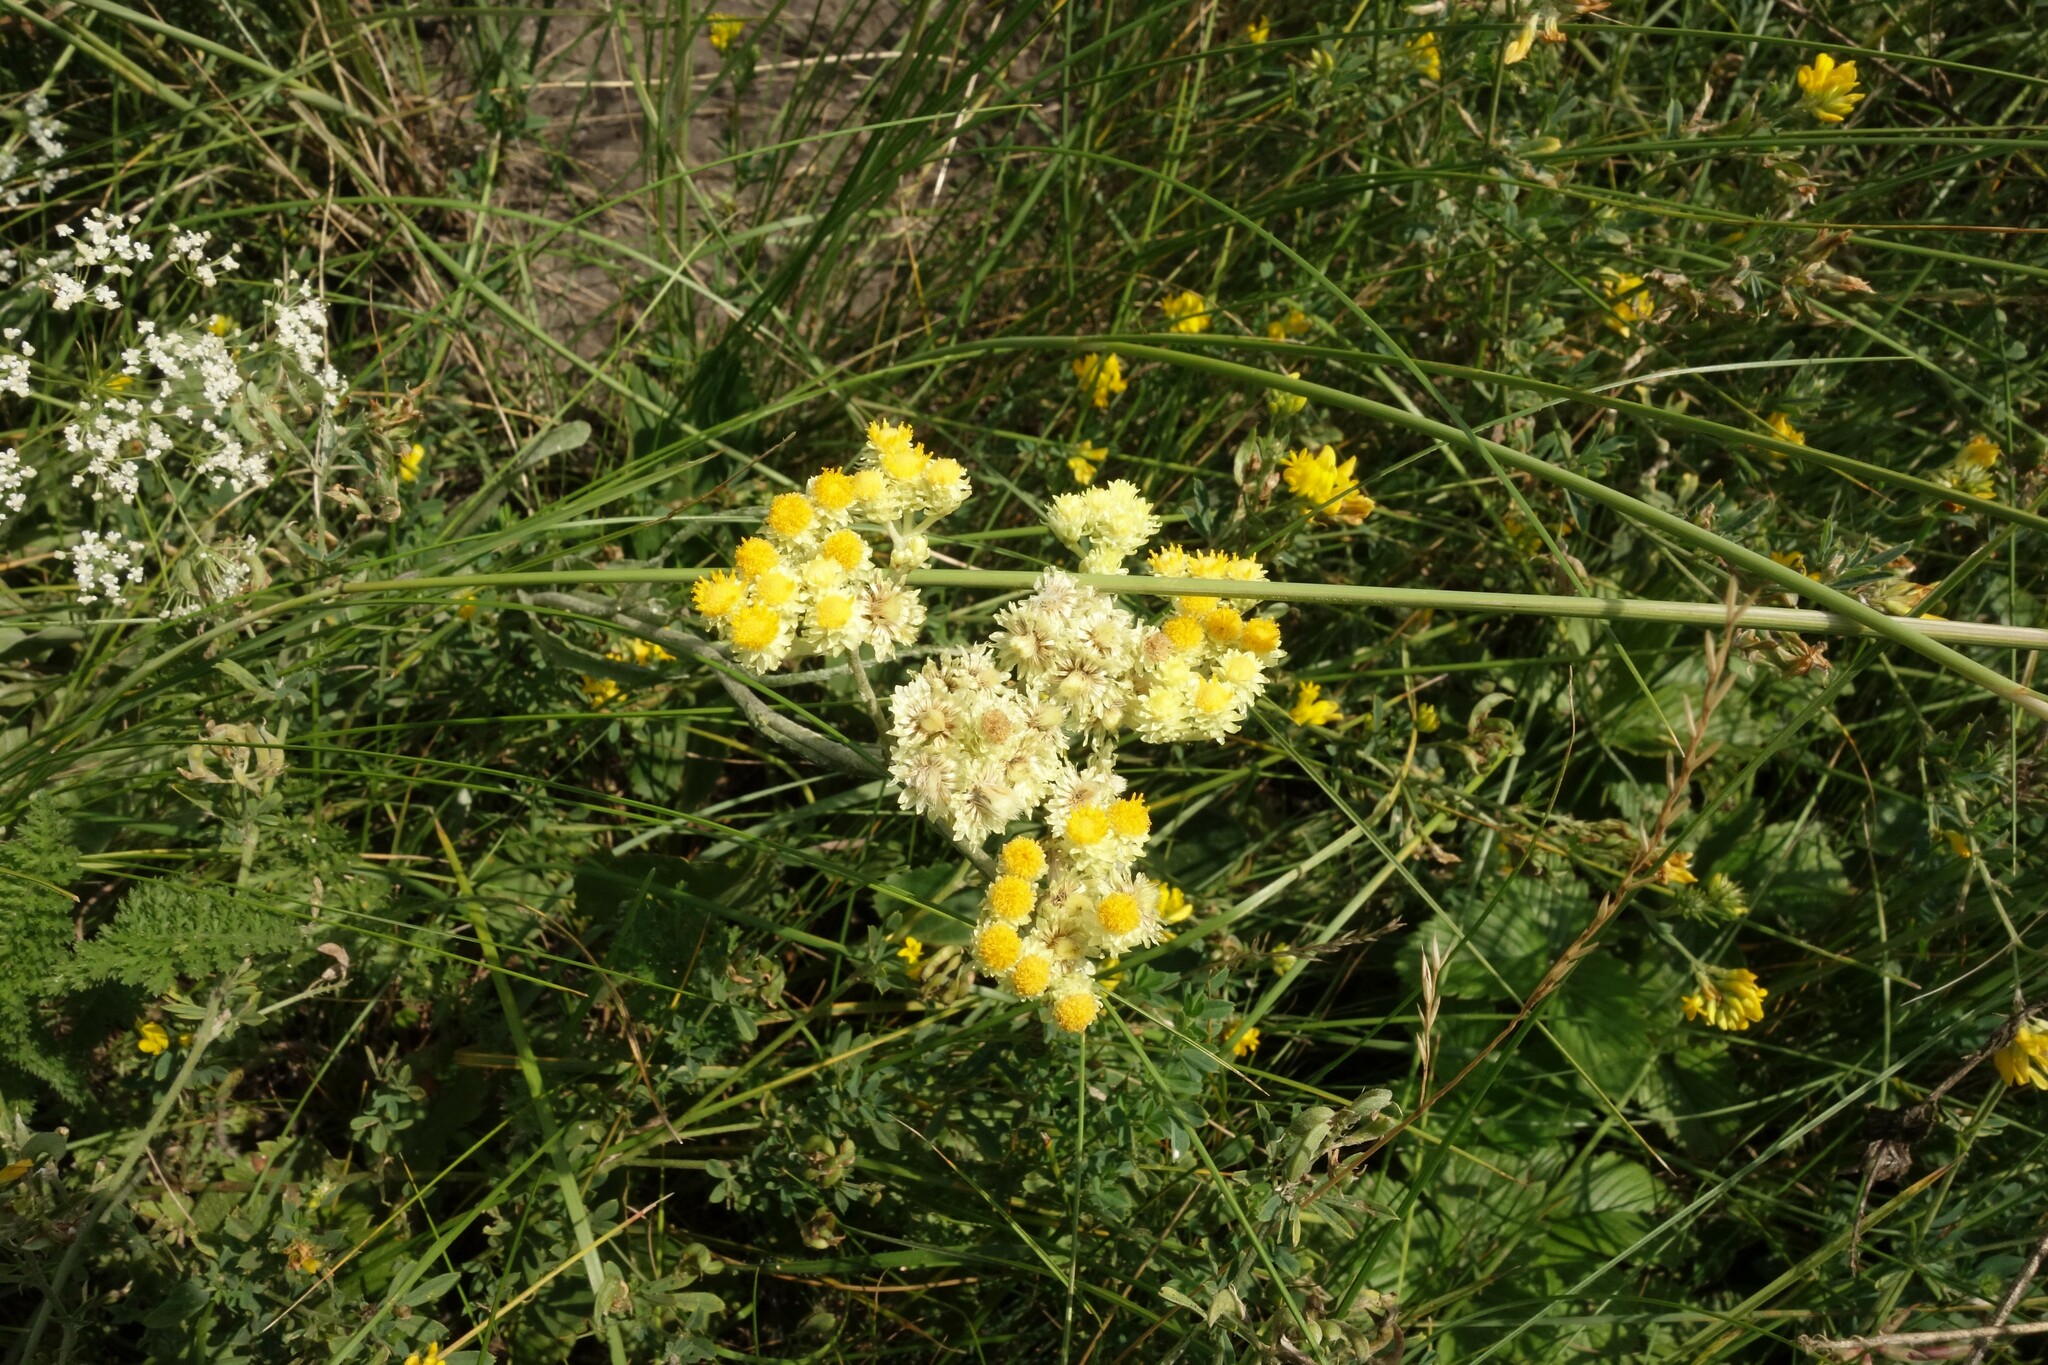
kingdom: Plantae
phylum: Tracheophyta
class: Magnoliopsida
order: Asterales
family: Asteraceae
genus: Helichrysum
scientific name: Helichrysum arenarium
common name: Strawflower
